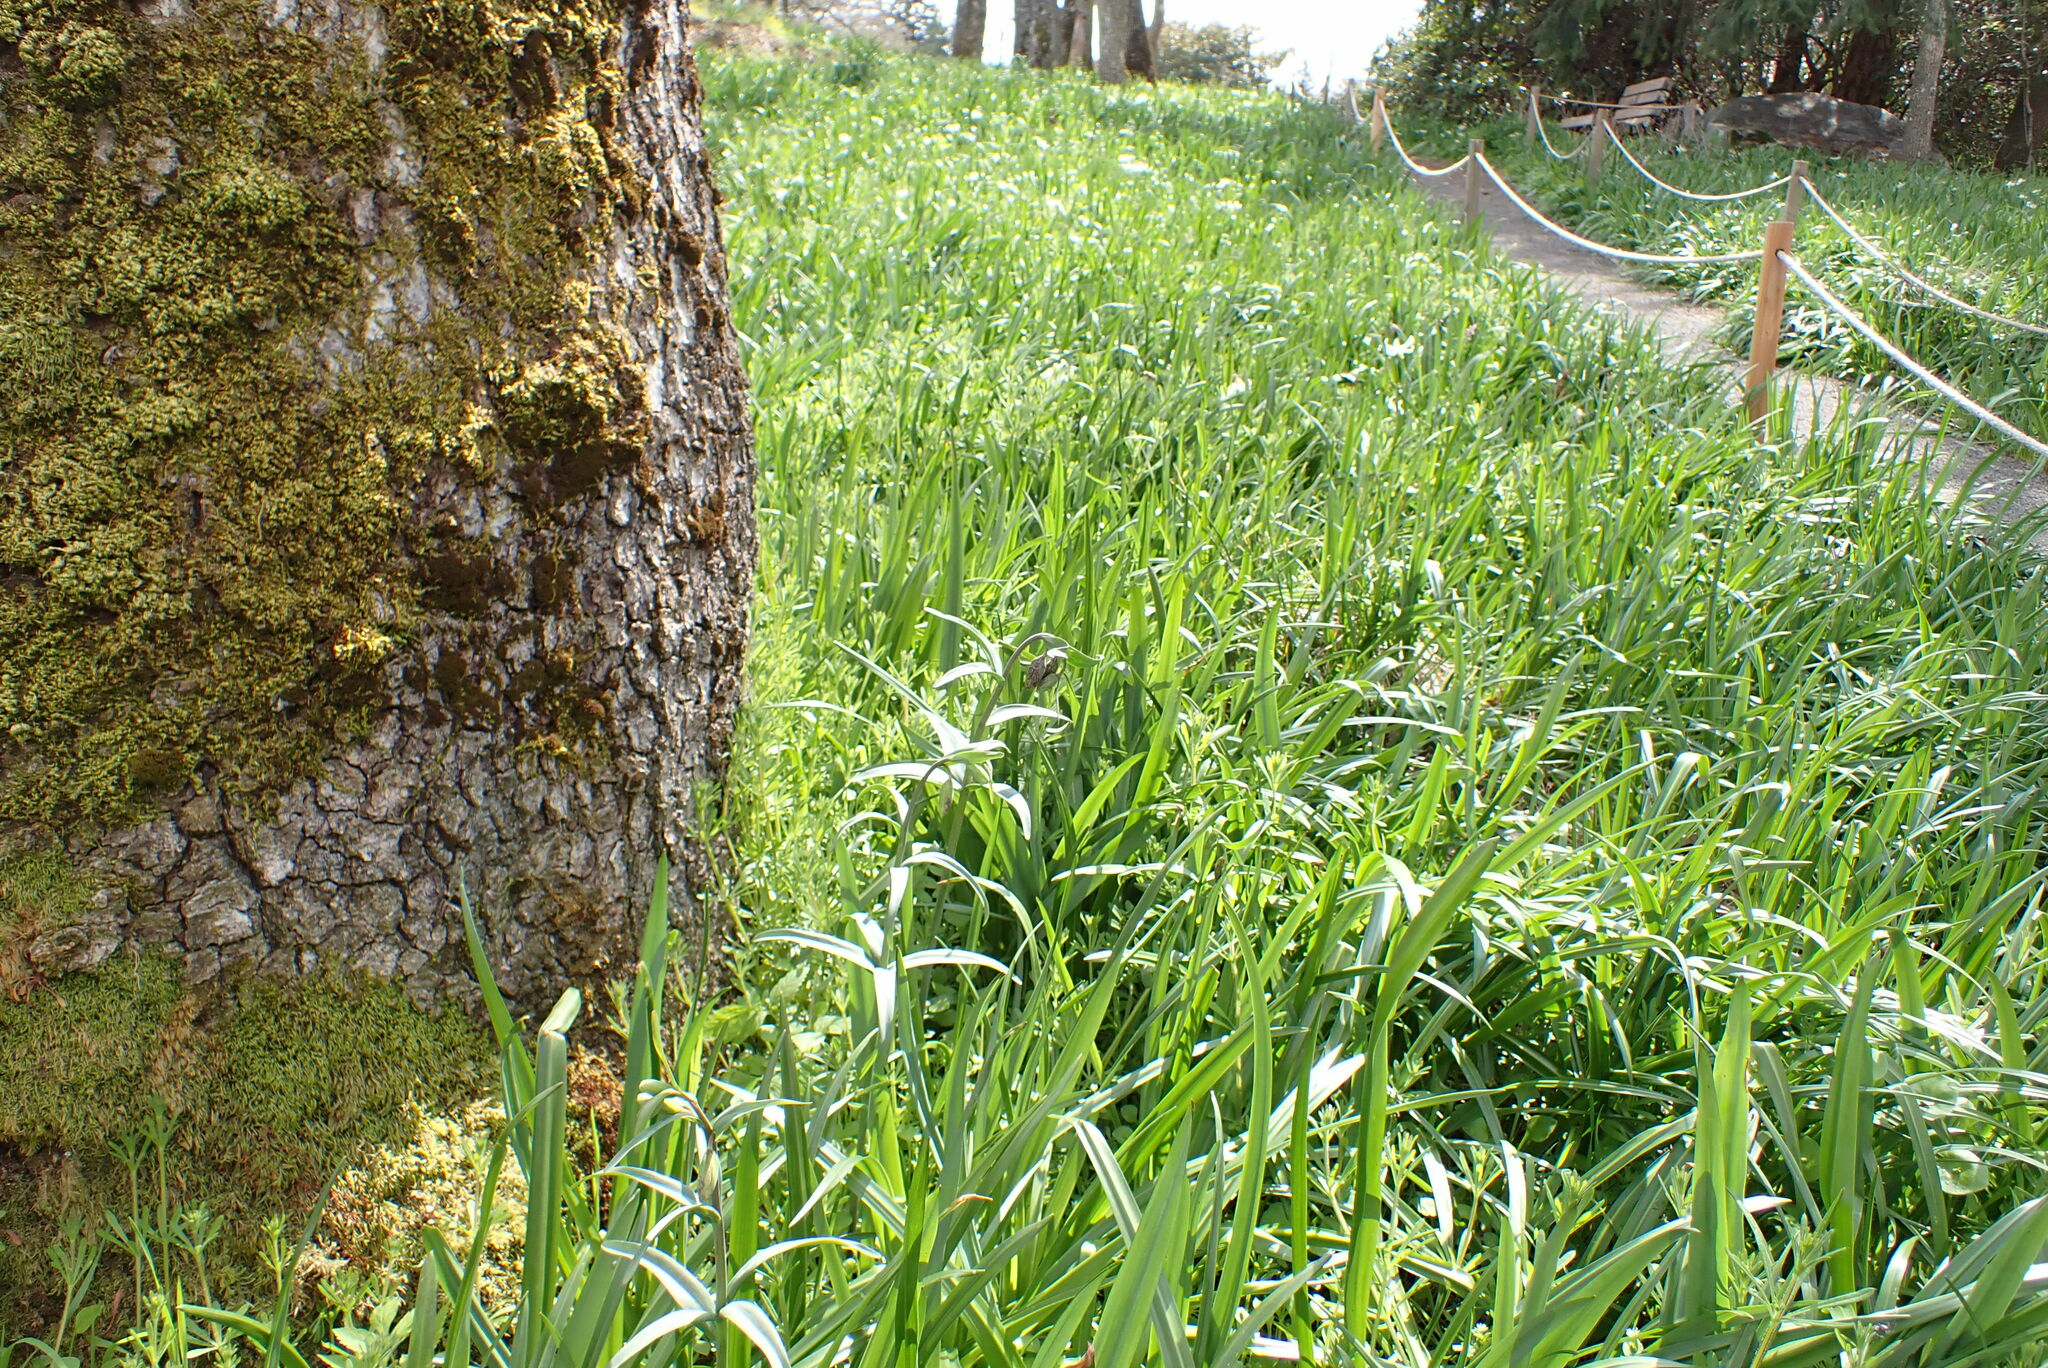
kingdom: Plantae
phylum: Tracheophyta
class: Liliopsida
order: Liliales
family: Liliaceae
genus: Fritillaria
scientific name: Fritillaria affinis
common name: Ojai fritillary
